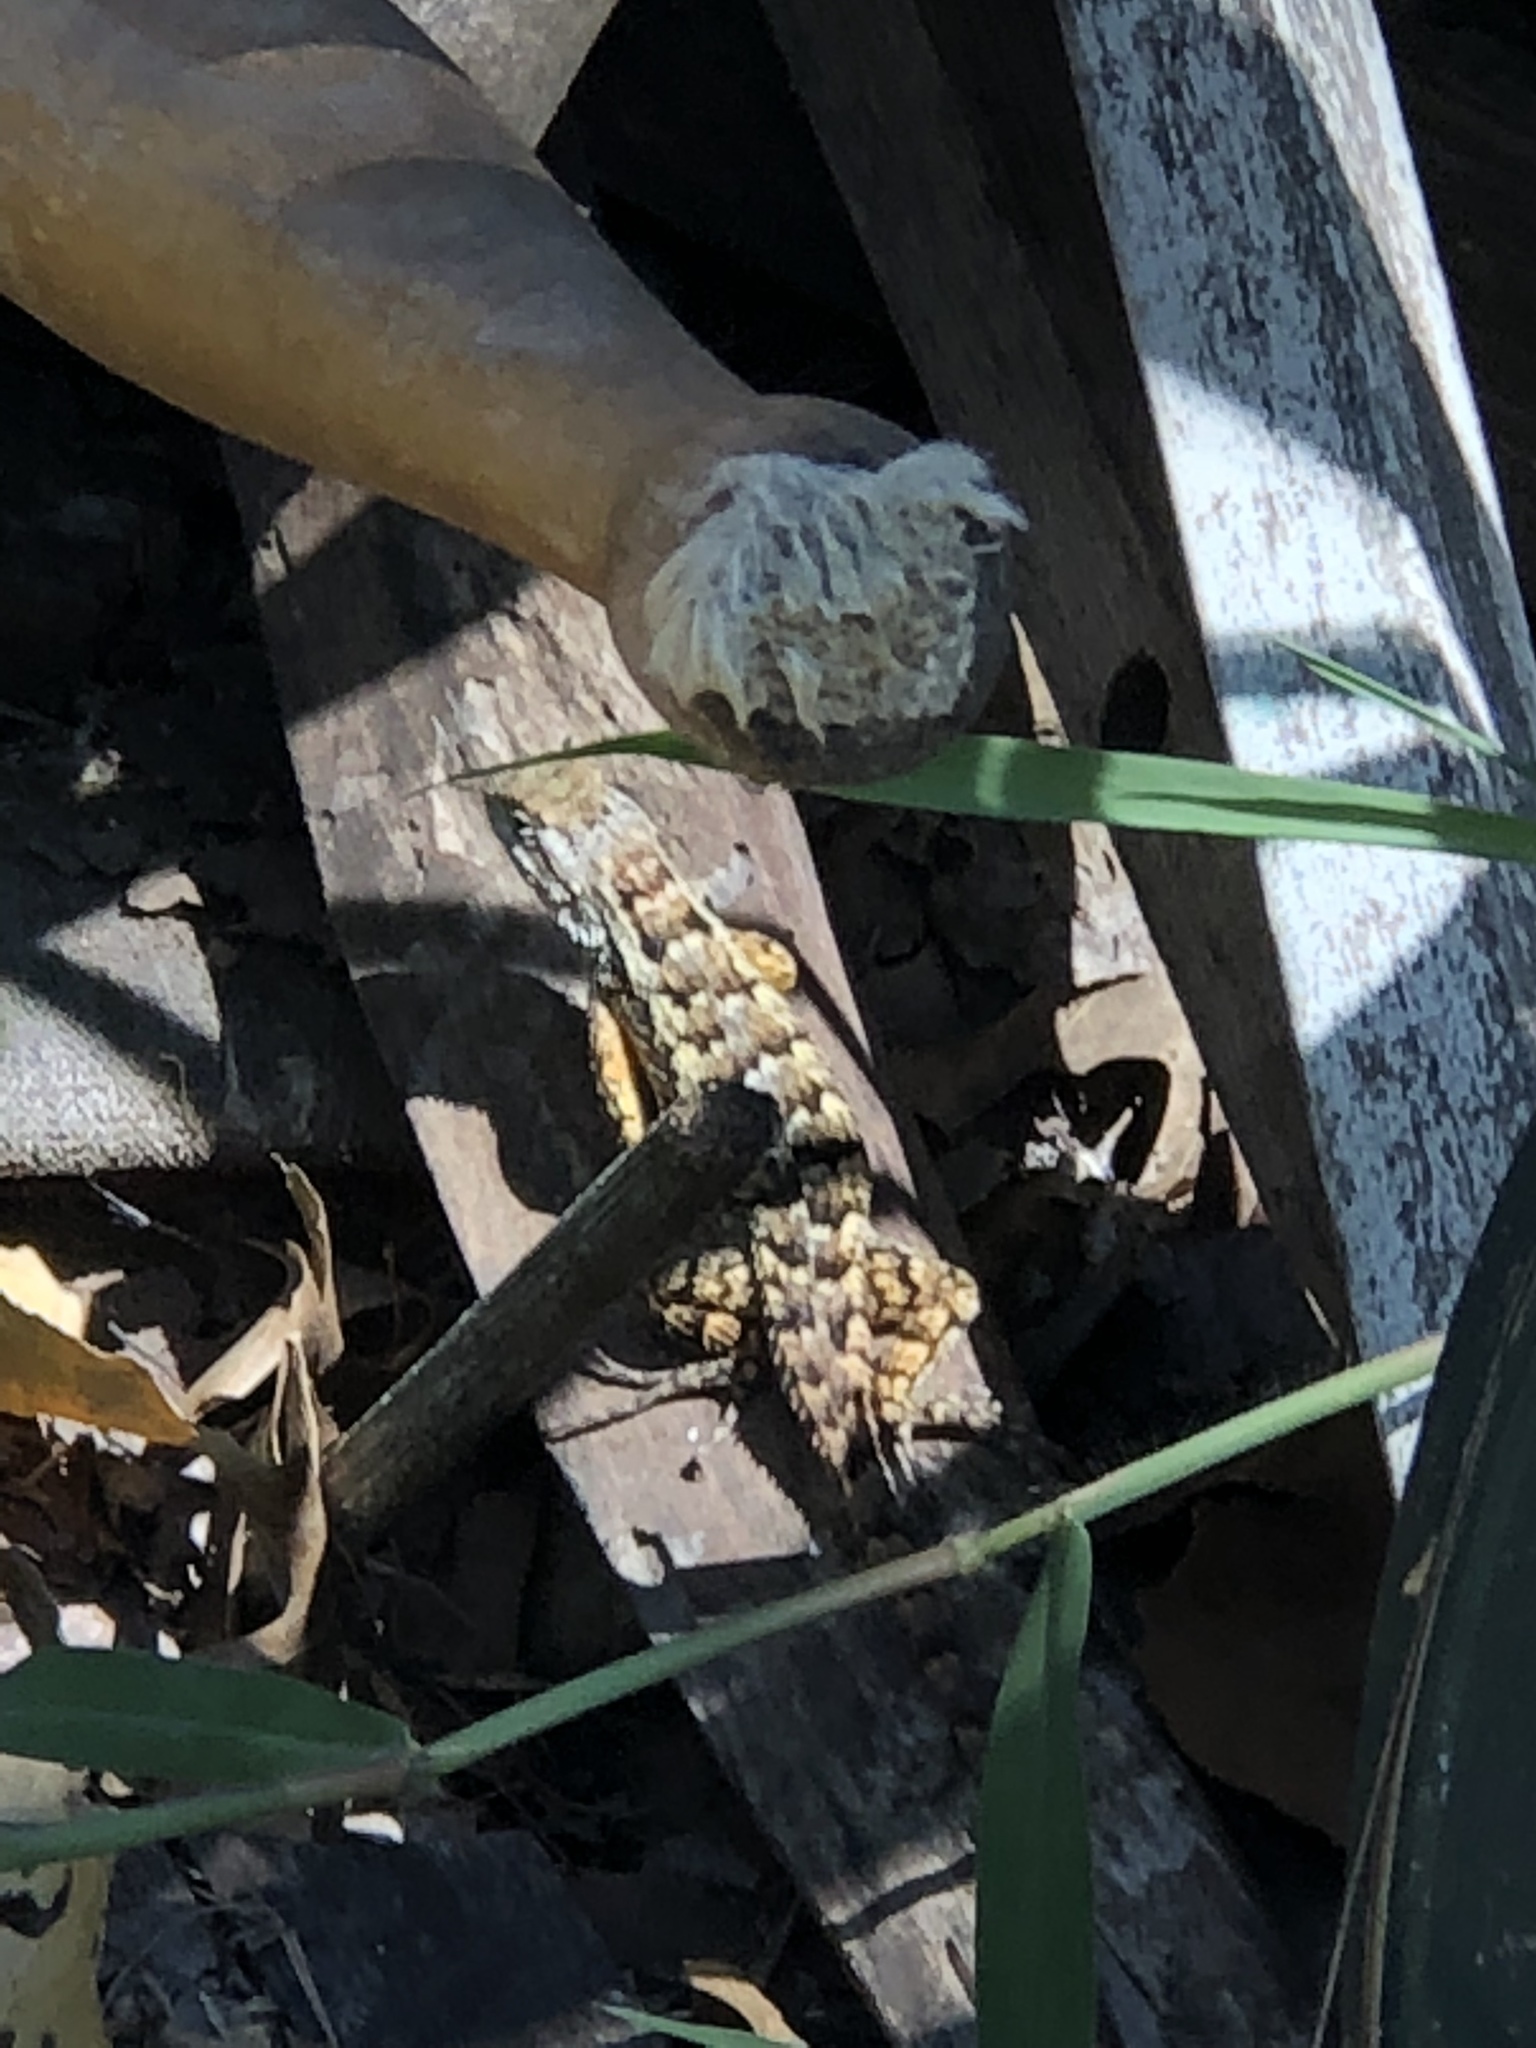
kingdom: Animalia
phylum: Chordata
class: Squamata
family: Phrynosomatidae
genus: Sceloporus
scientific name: Sceloporus olivaceus
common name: Texas spiny lizard
